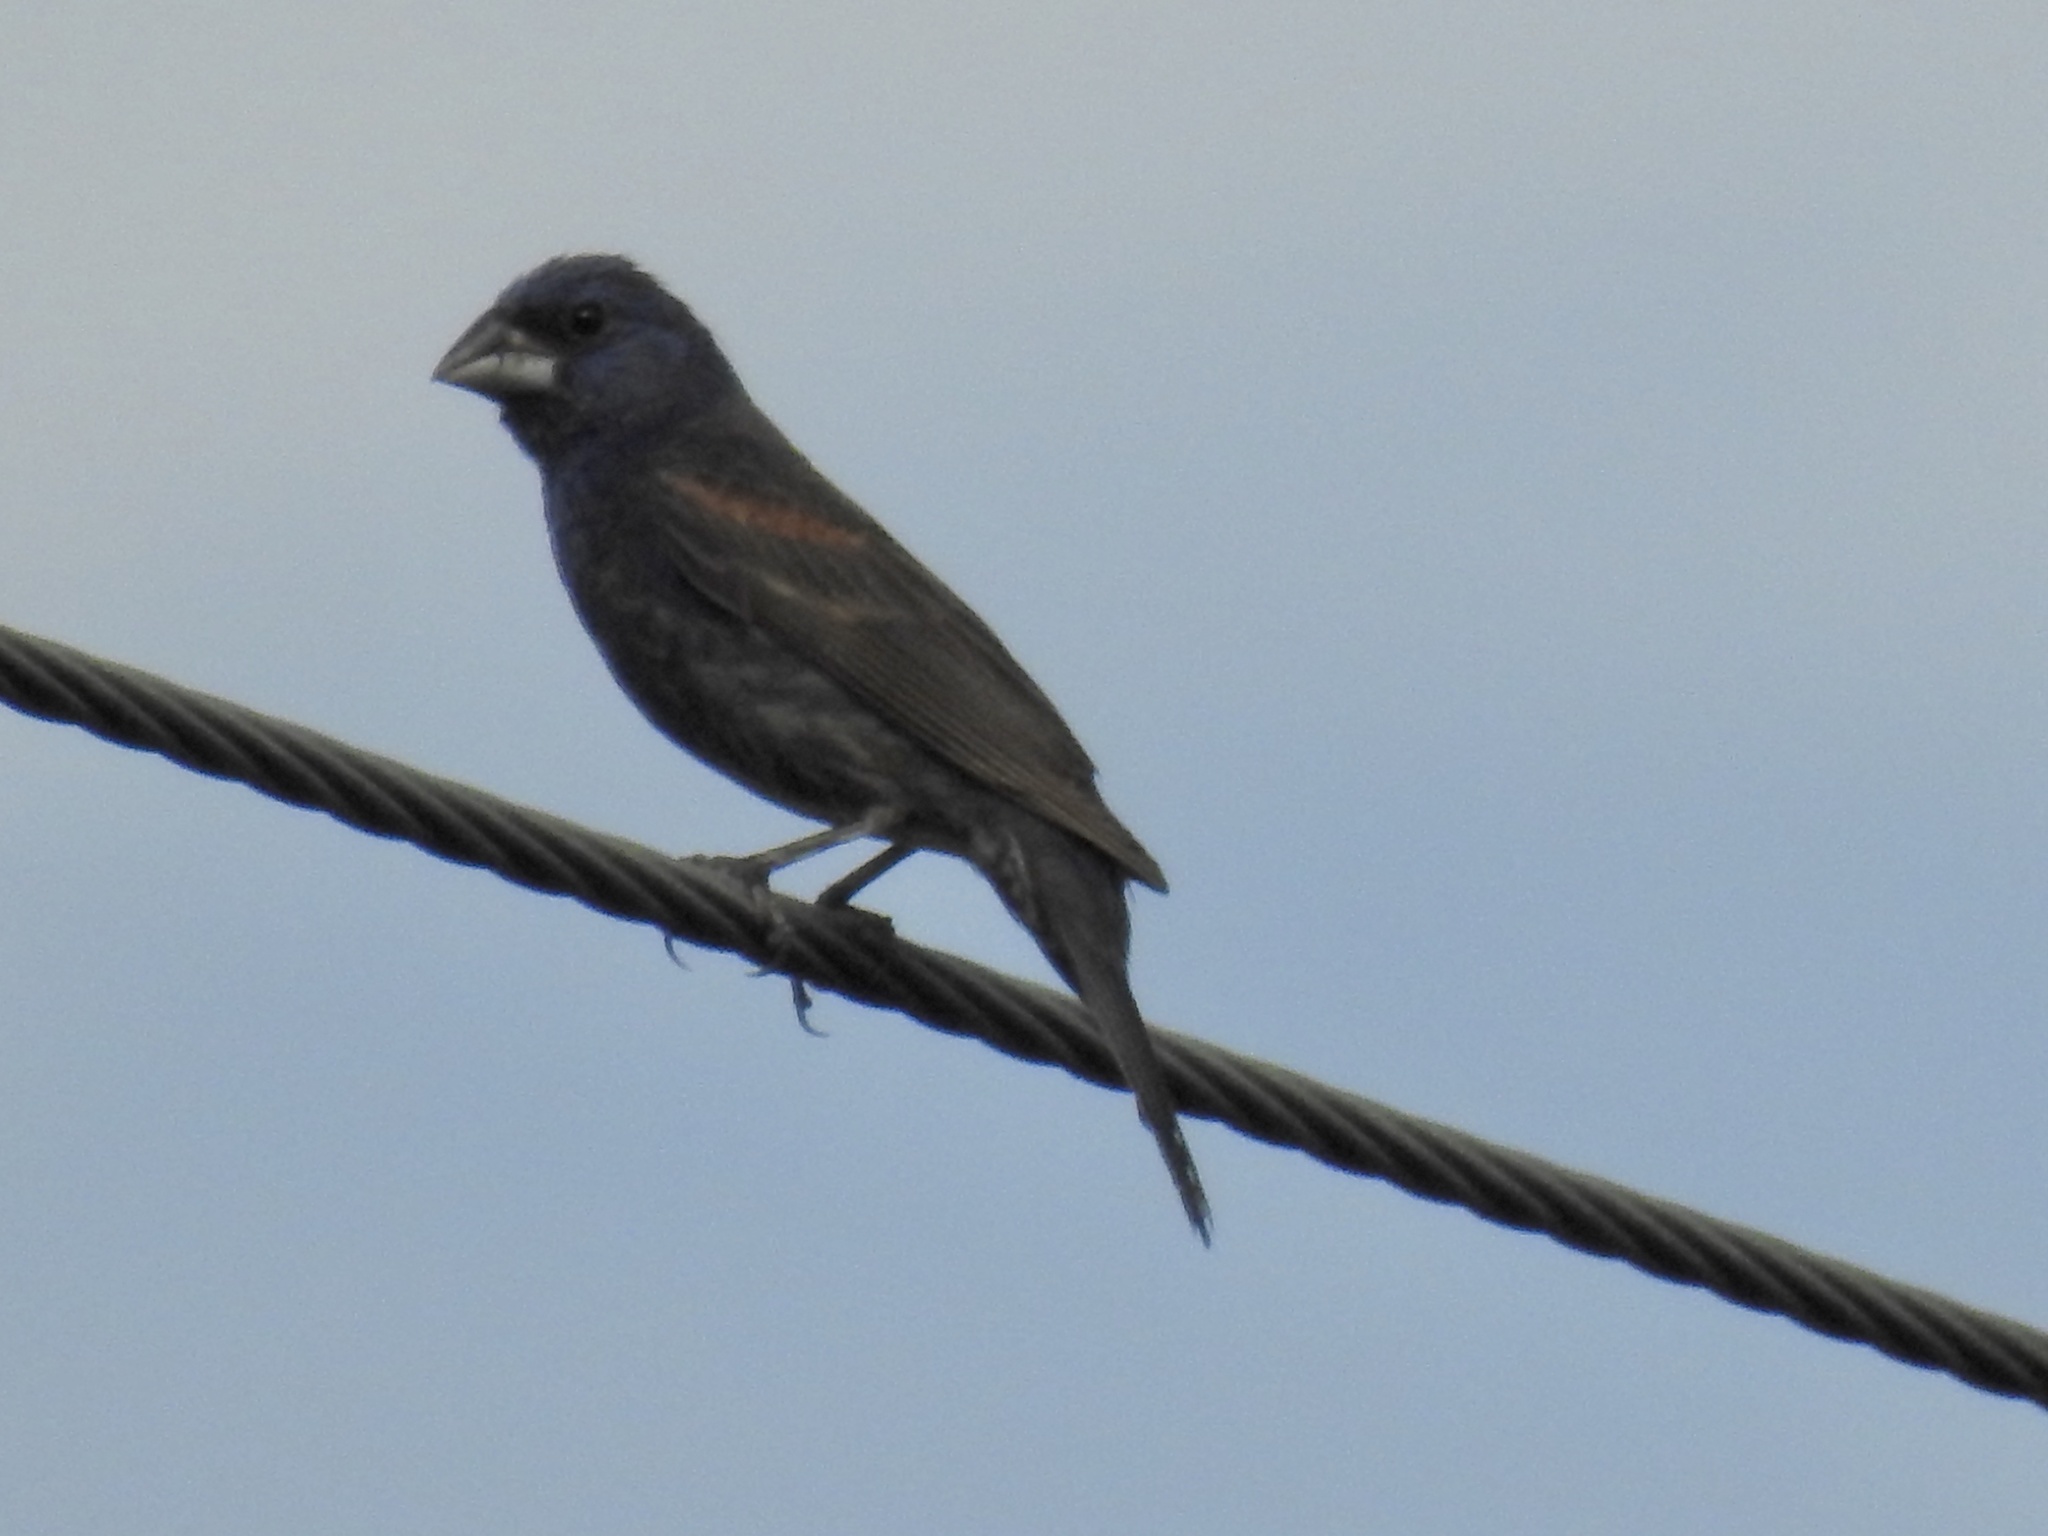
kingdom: Animalia
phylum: Chordata
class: Aves
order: Passeriformes
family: Cardinalidae
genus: Passerina
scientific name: Passerina caerulea
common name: Blue grosbeak
